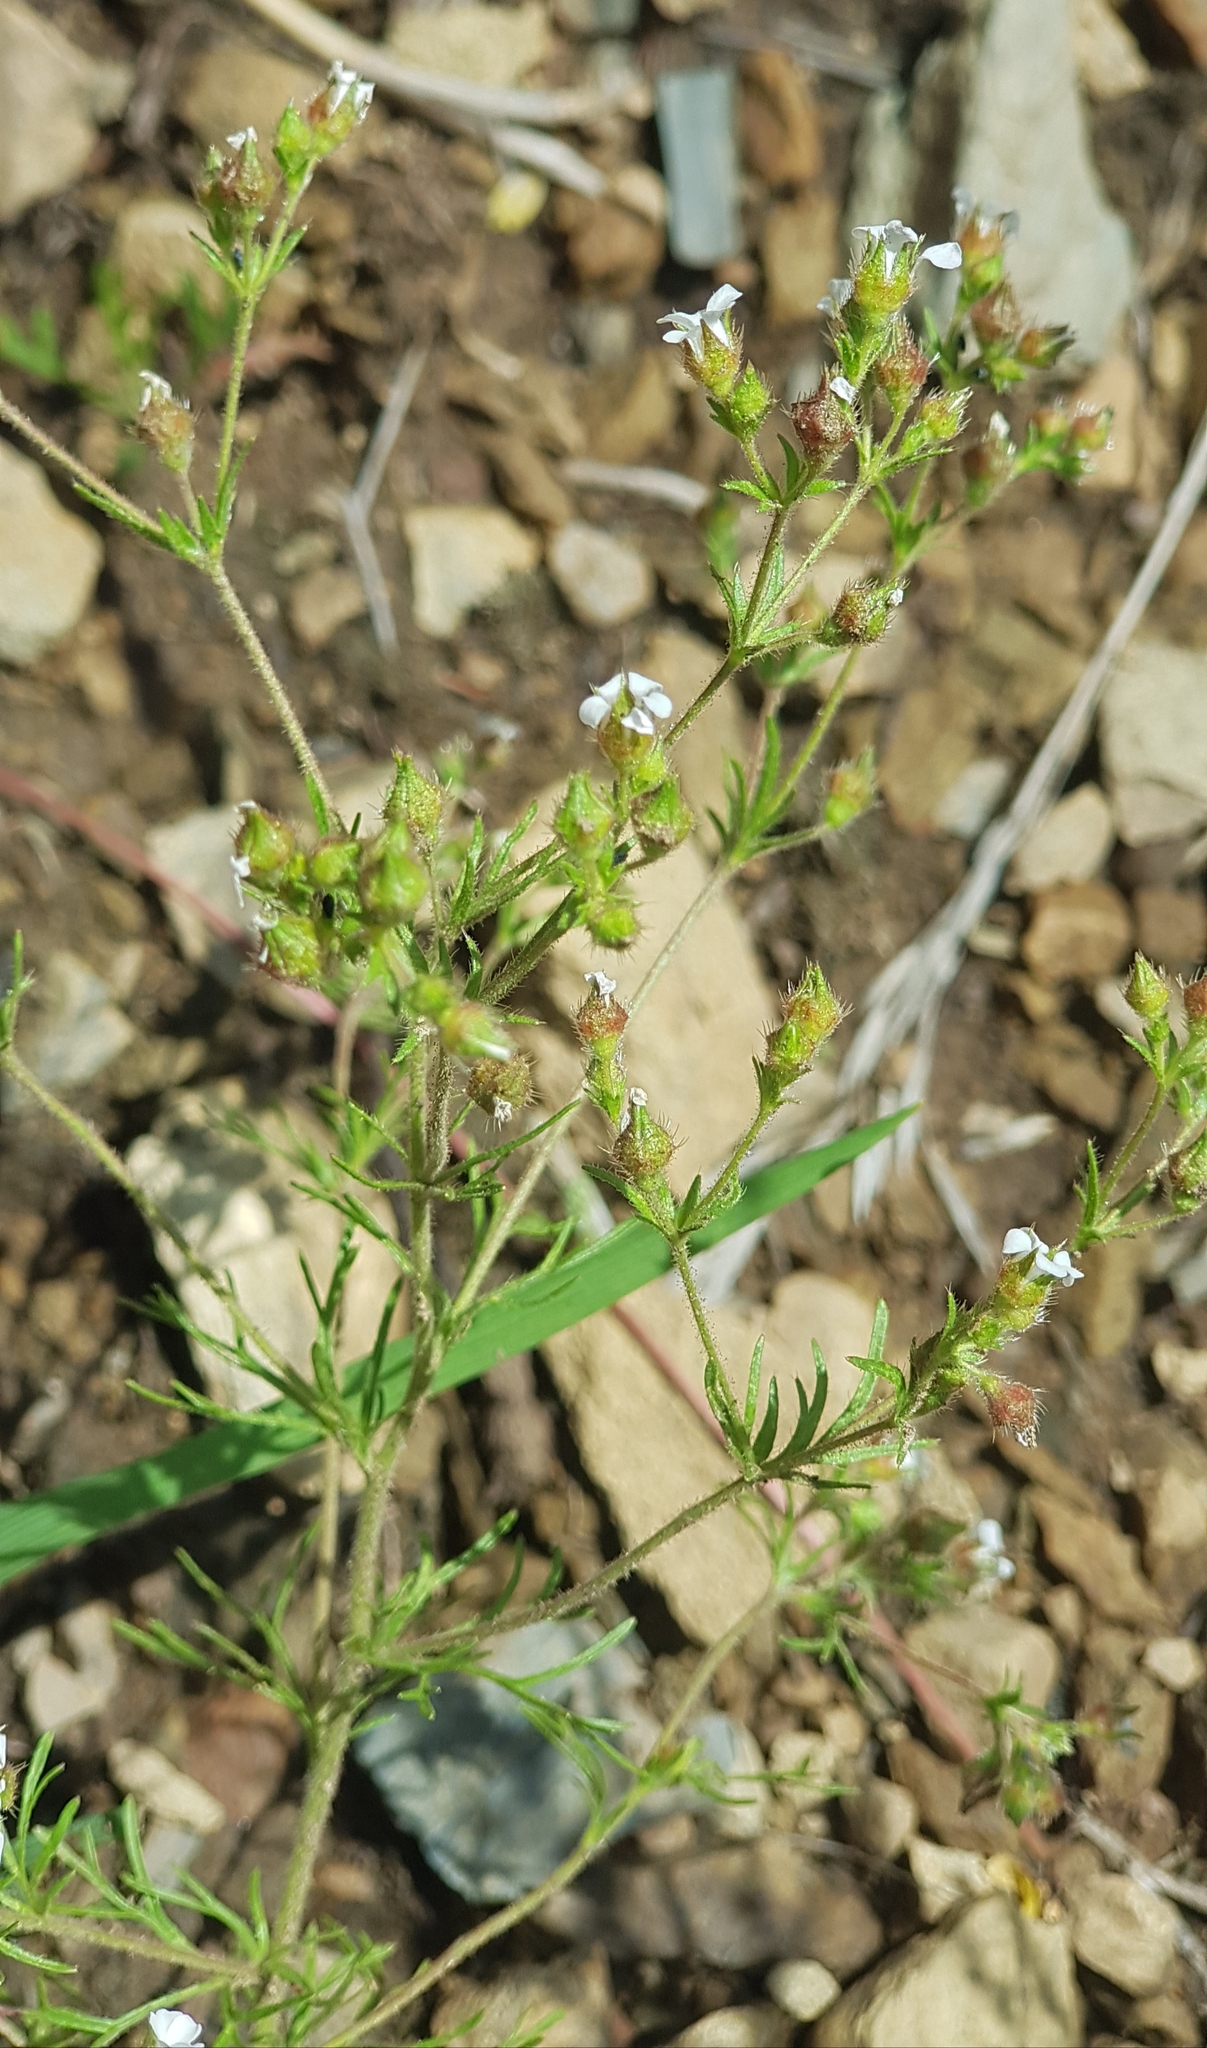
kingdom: Plantae
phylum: Tracheophyta
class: Magnoliopsida
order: Rosales
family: Rosaceae
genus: Chamaerhodos
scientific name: Chamaerhodos erecta
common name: American chamaerhodos
